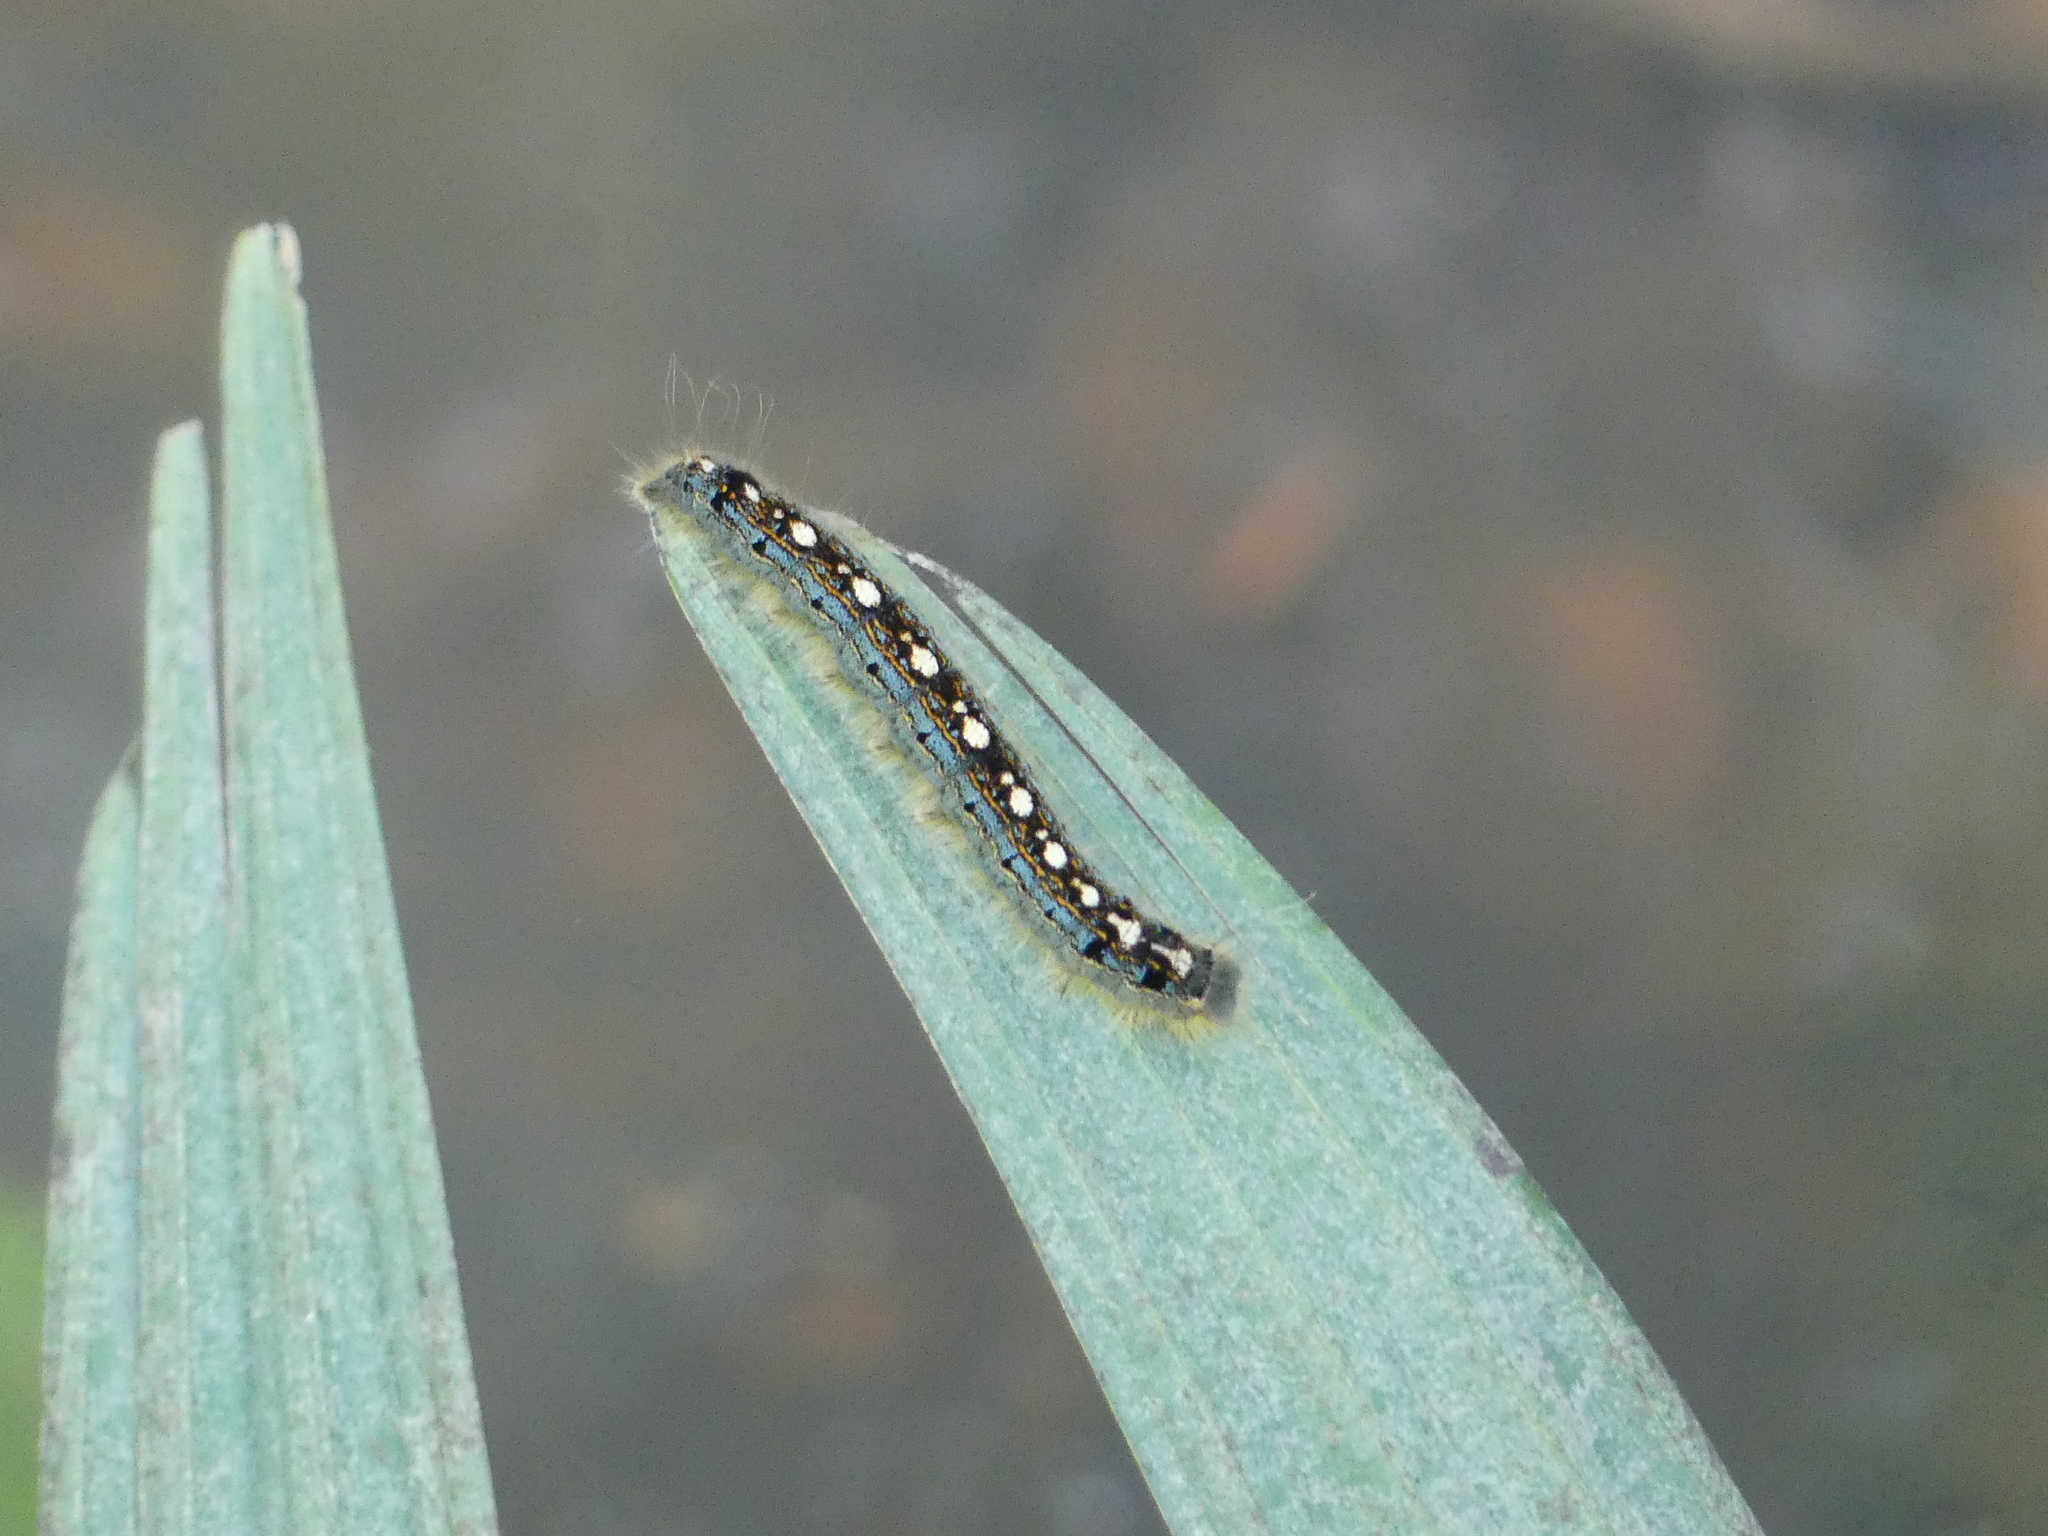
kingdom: Animalia
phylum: Arthropoda
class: Insecta
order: Lepidoptera
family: Lasiocampidae
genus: Malacosoma
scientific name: Malacosoma disstria
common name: Forest tent caterpillar
